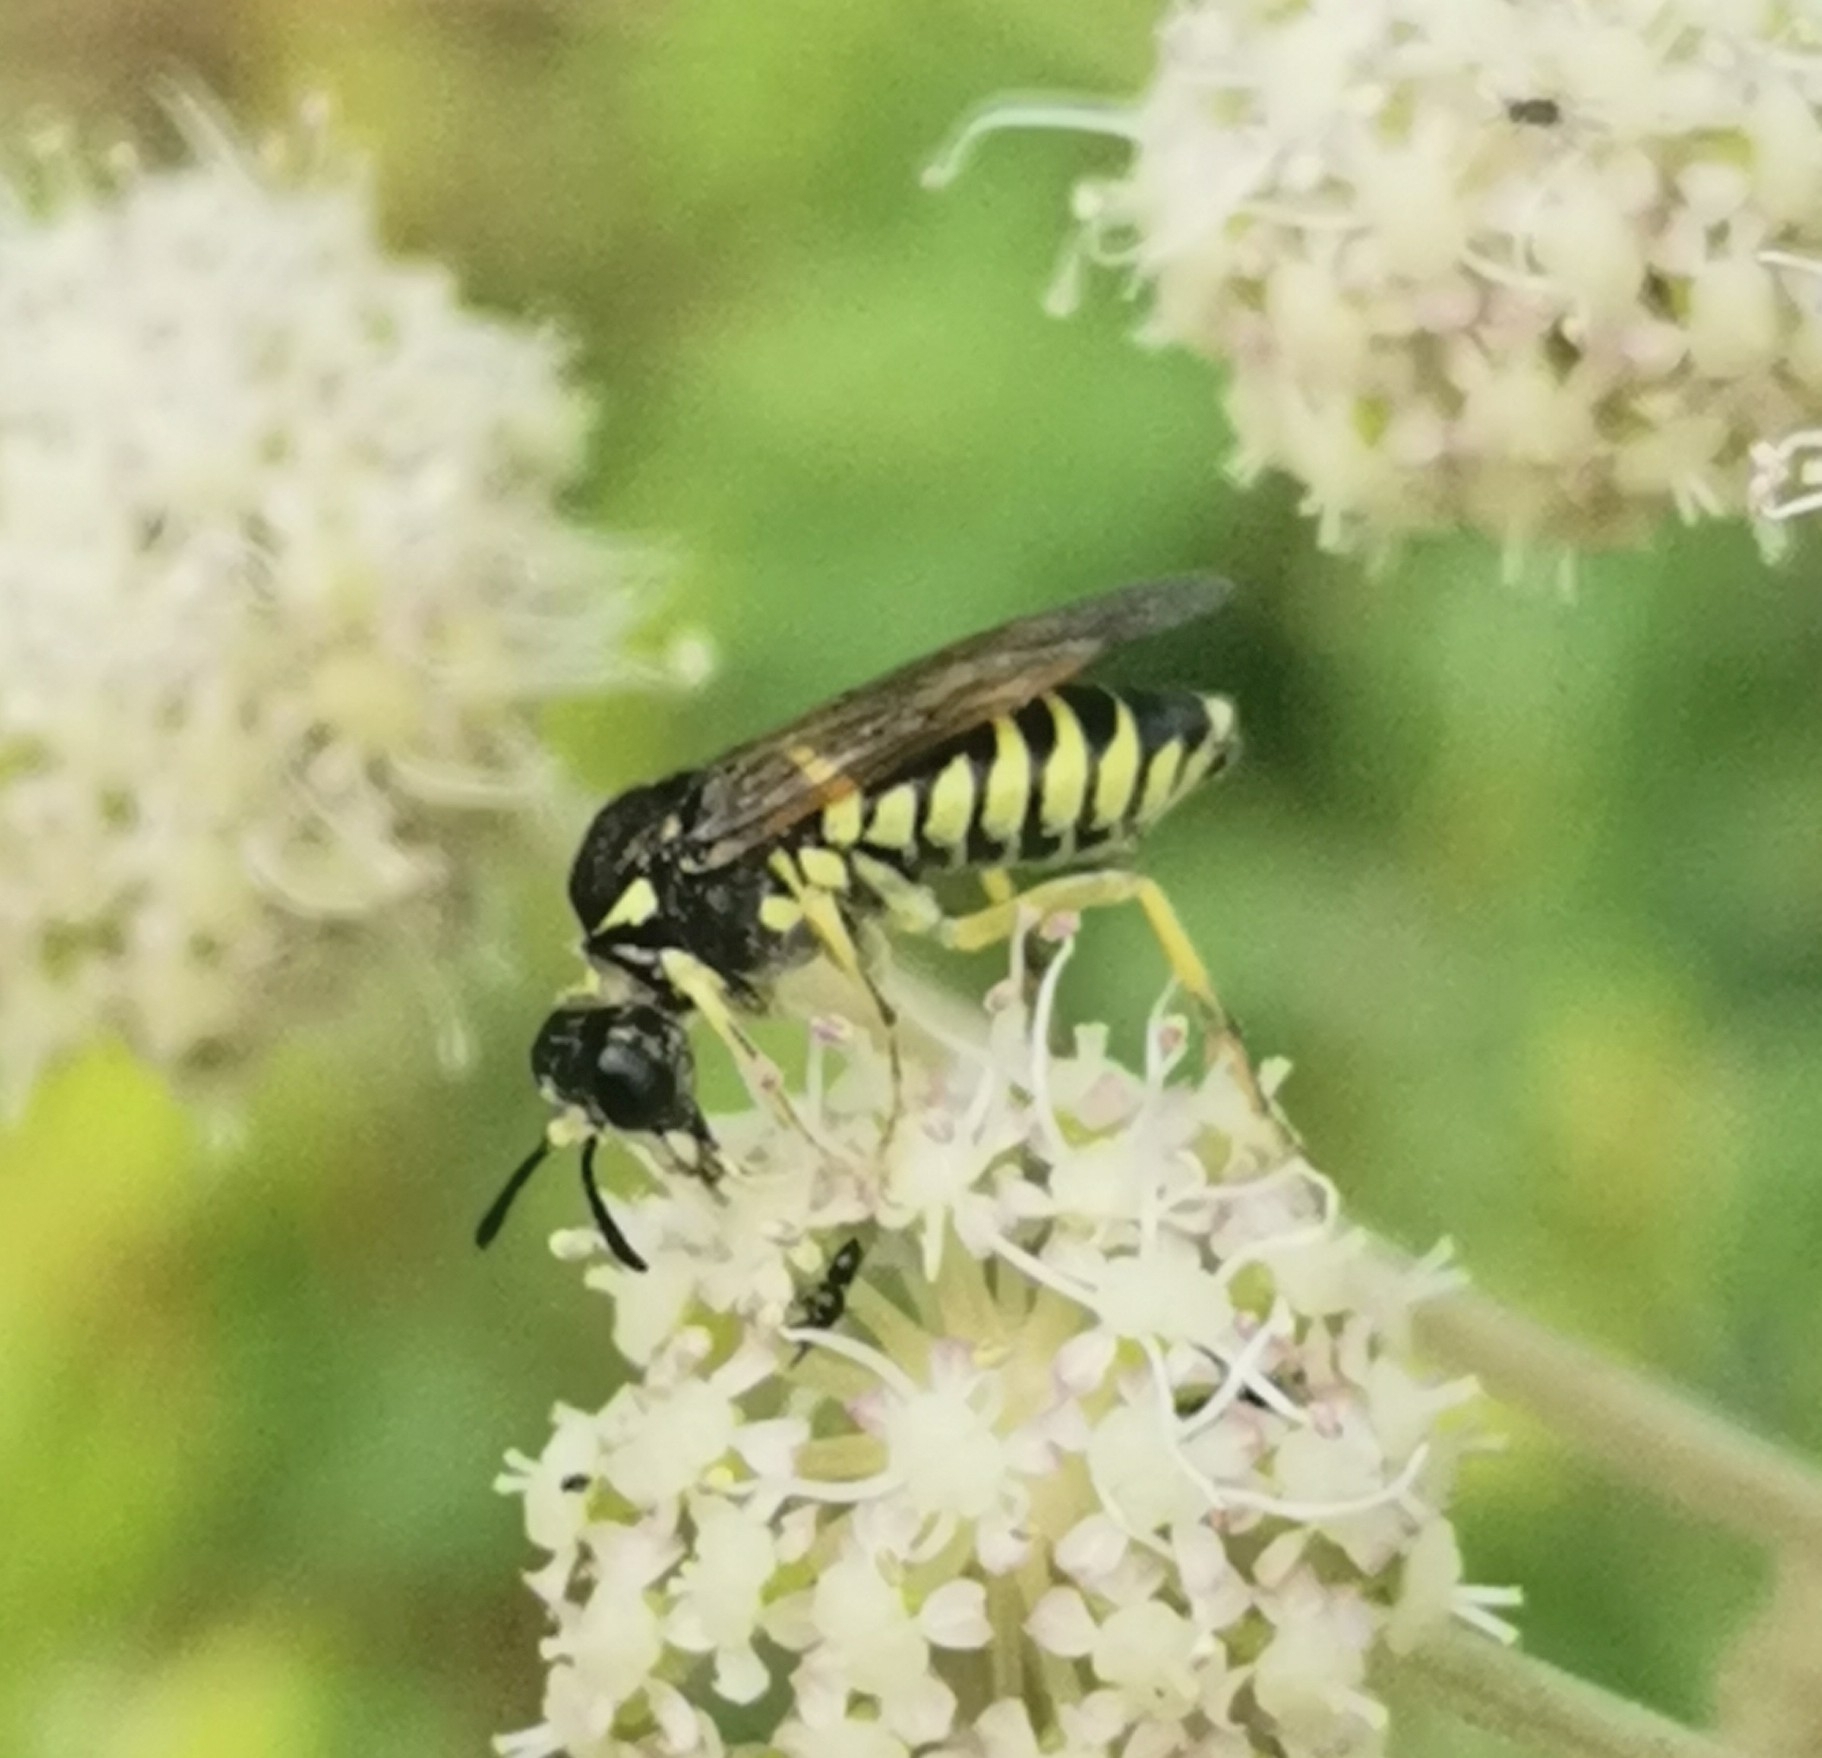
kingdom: Animalia
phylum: Arthropoda
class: Insecta
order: Hymenoptera
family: Tenthredinidae
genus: Tenthredo
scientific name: Tenthredo notha
